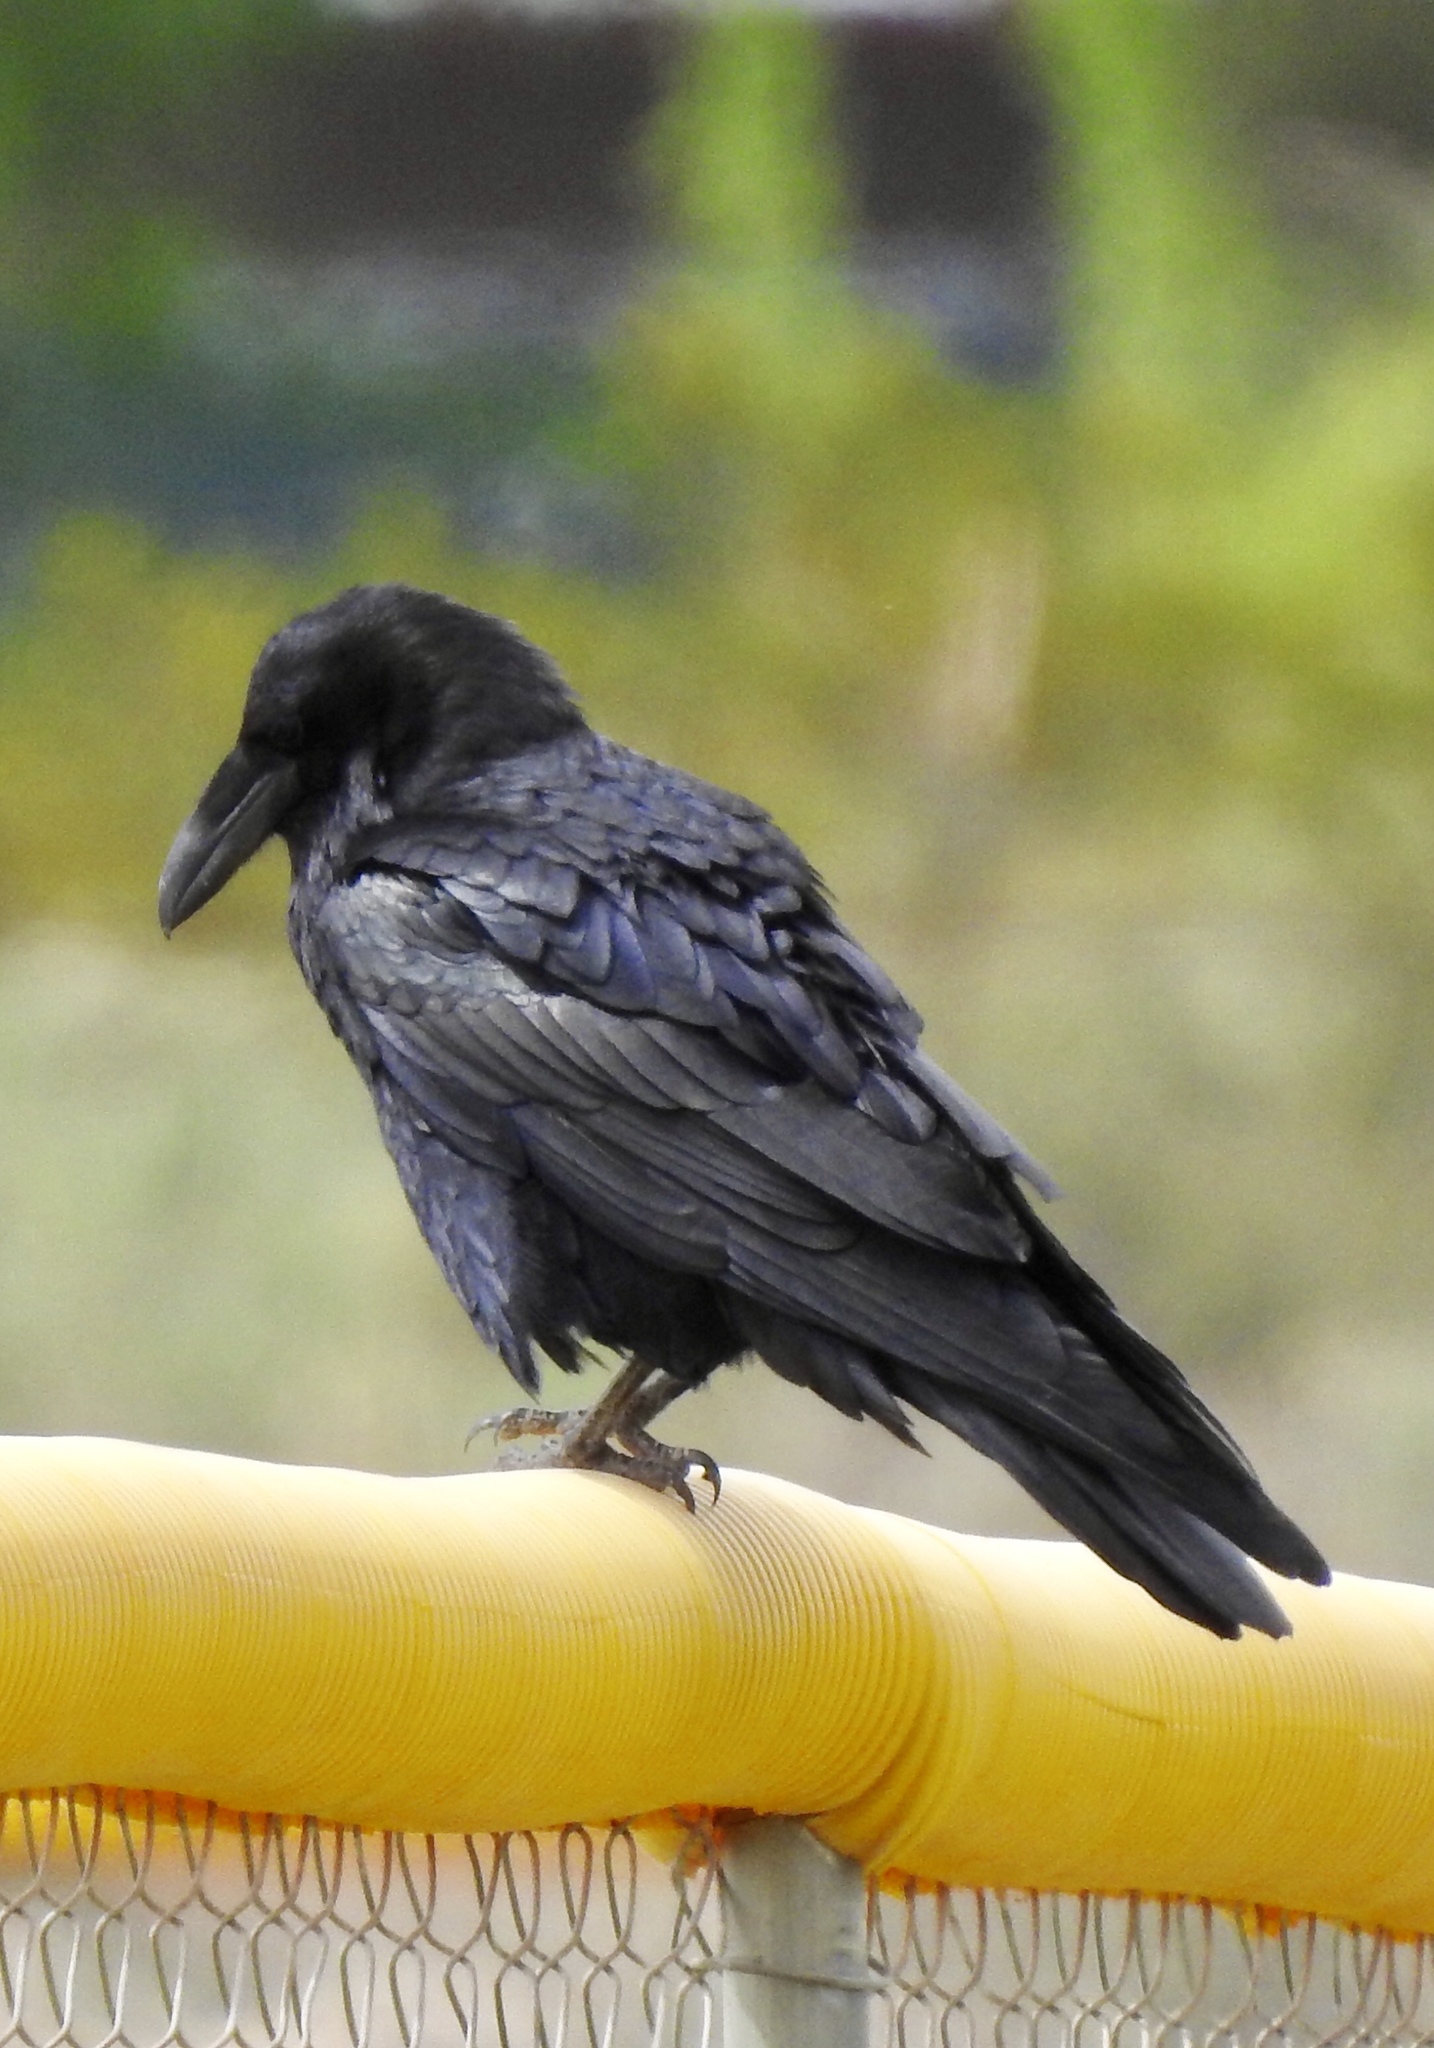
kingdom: Animalia
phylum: Chordata
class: Aves
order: Passeriformes
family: Corvidae
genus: Corvus
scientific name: Corvus corax
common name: Common raven
